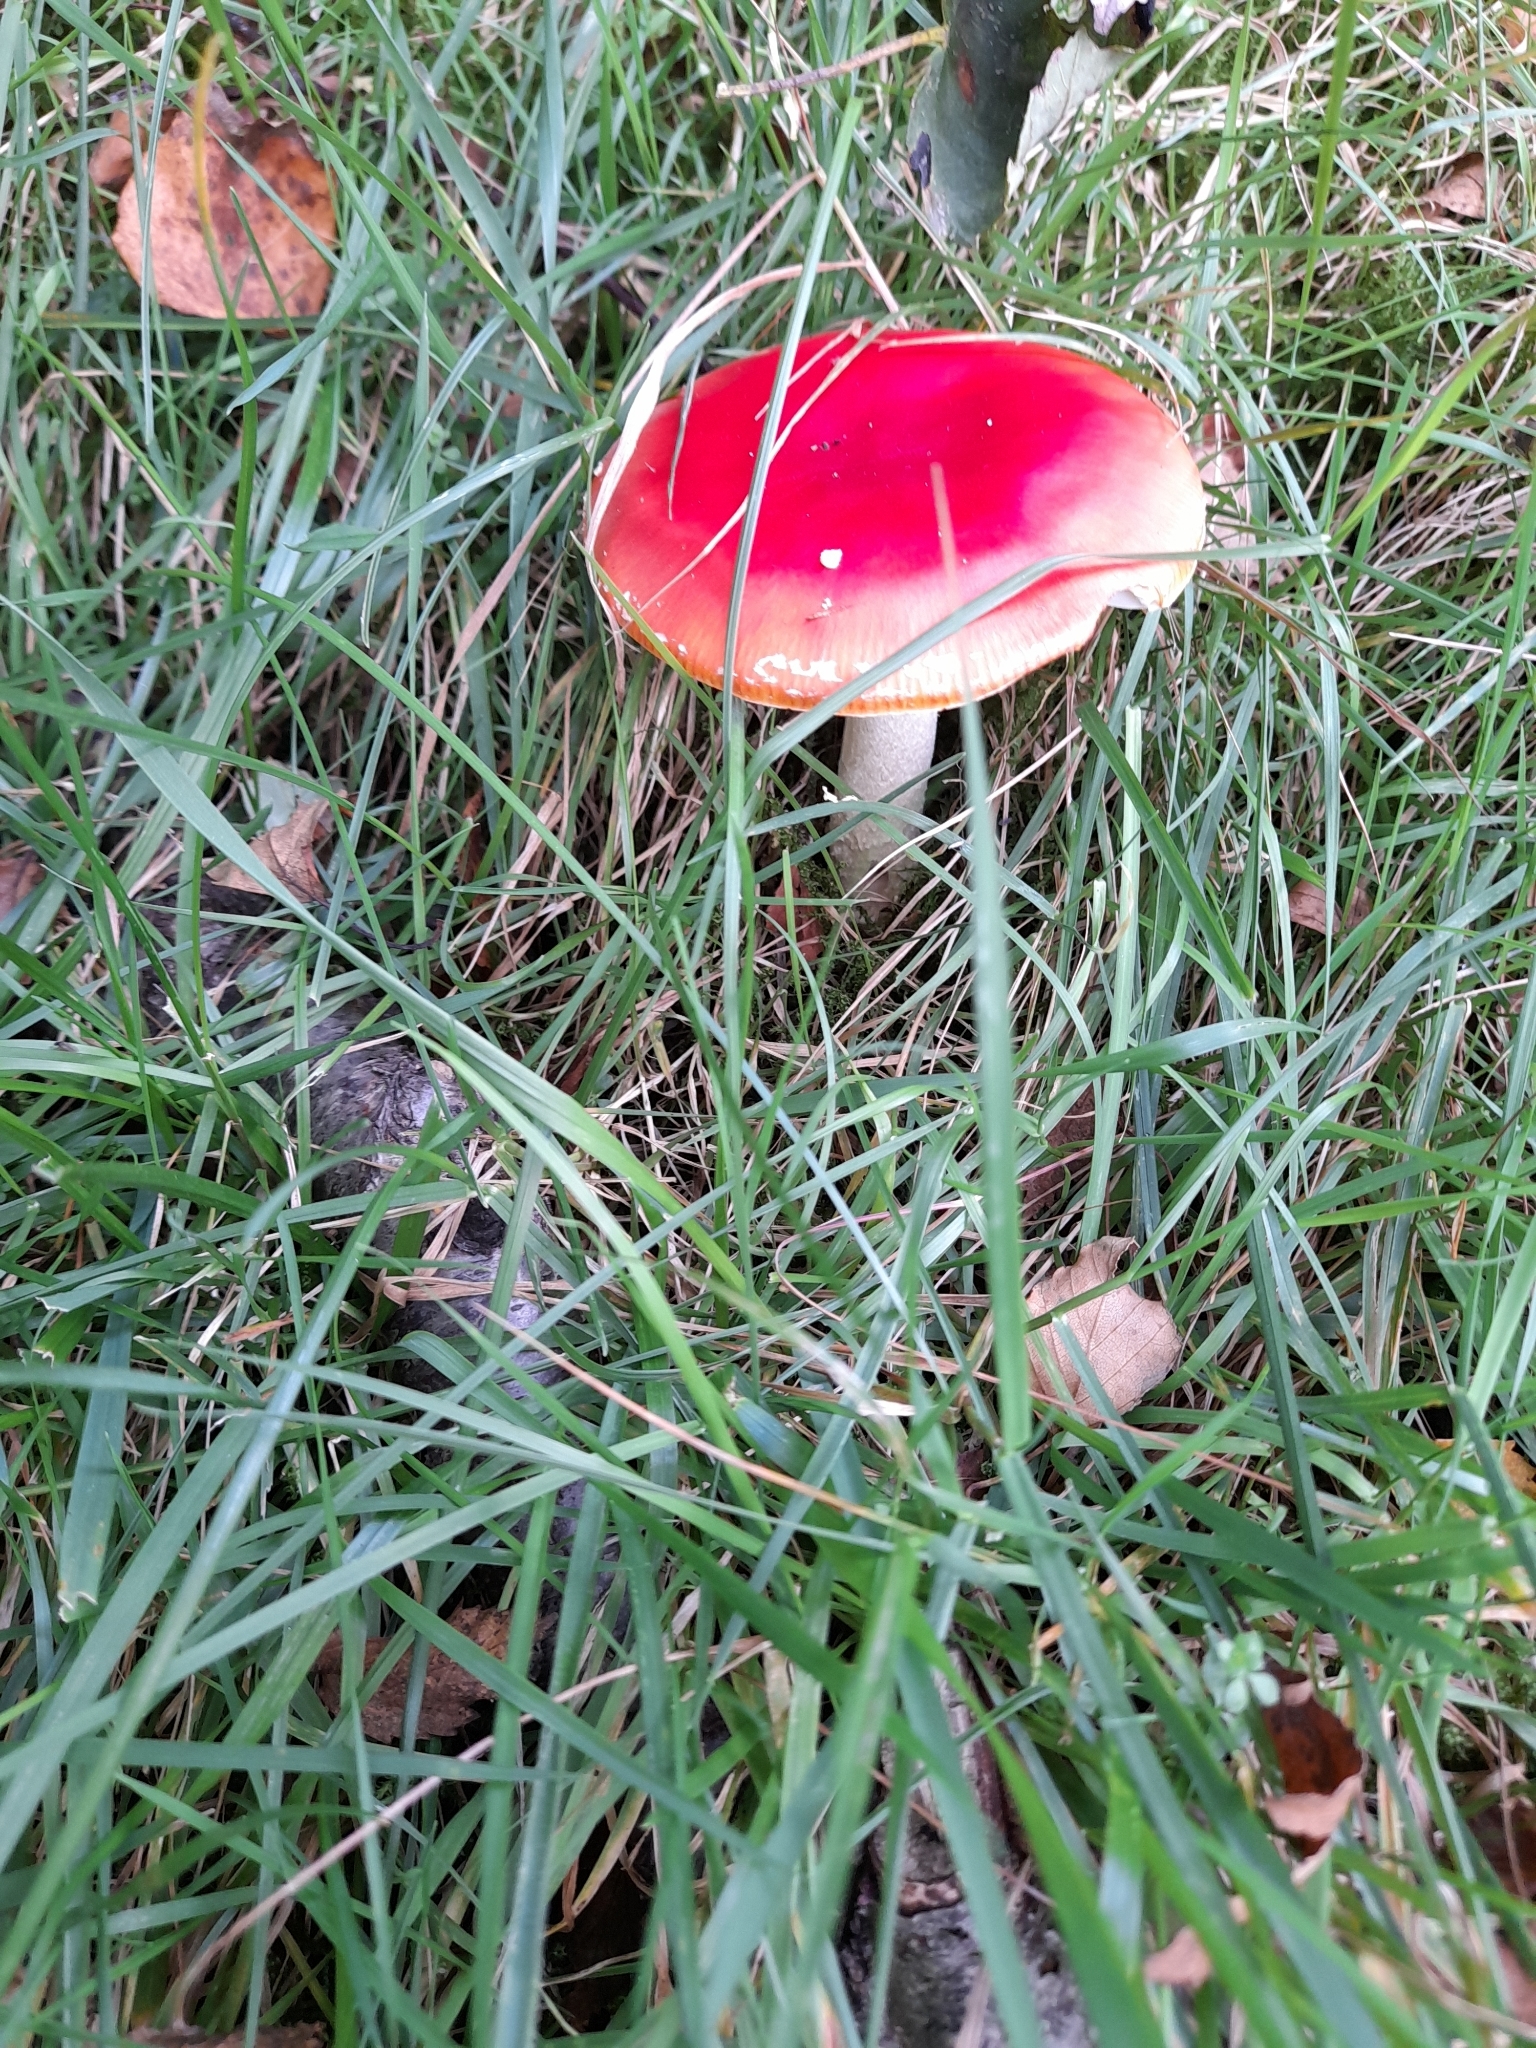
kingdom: Fungi
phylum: Basidiomycota
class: Agaricomycetes
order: Agaricales
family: Amanitaceae
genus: Amanita
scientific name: Amanita muscaria
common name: Fly agaric
